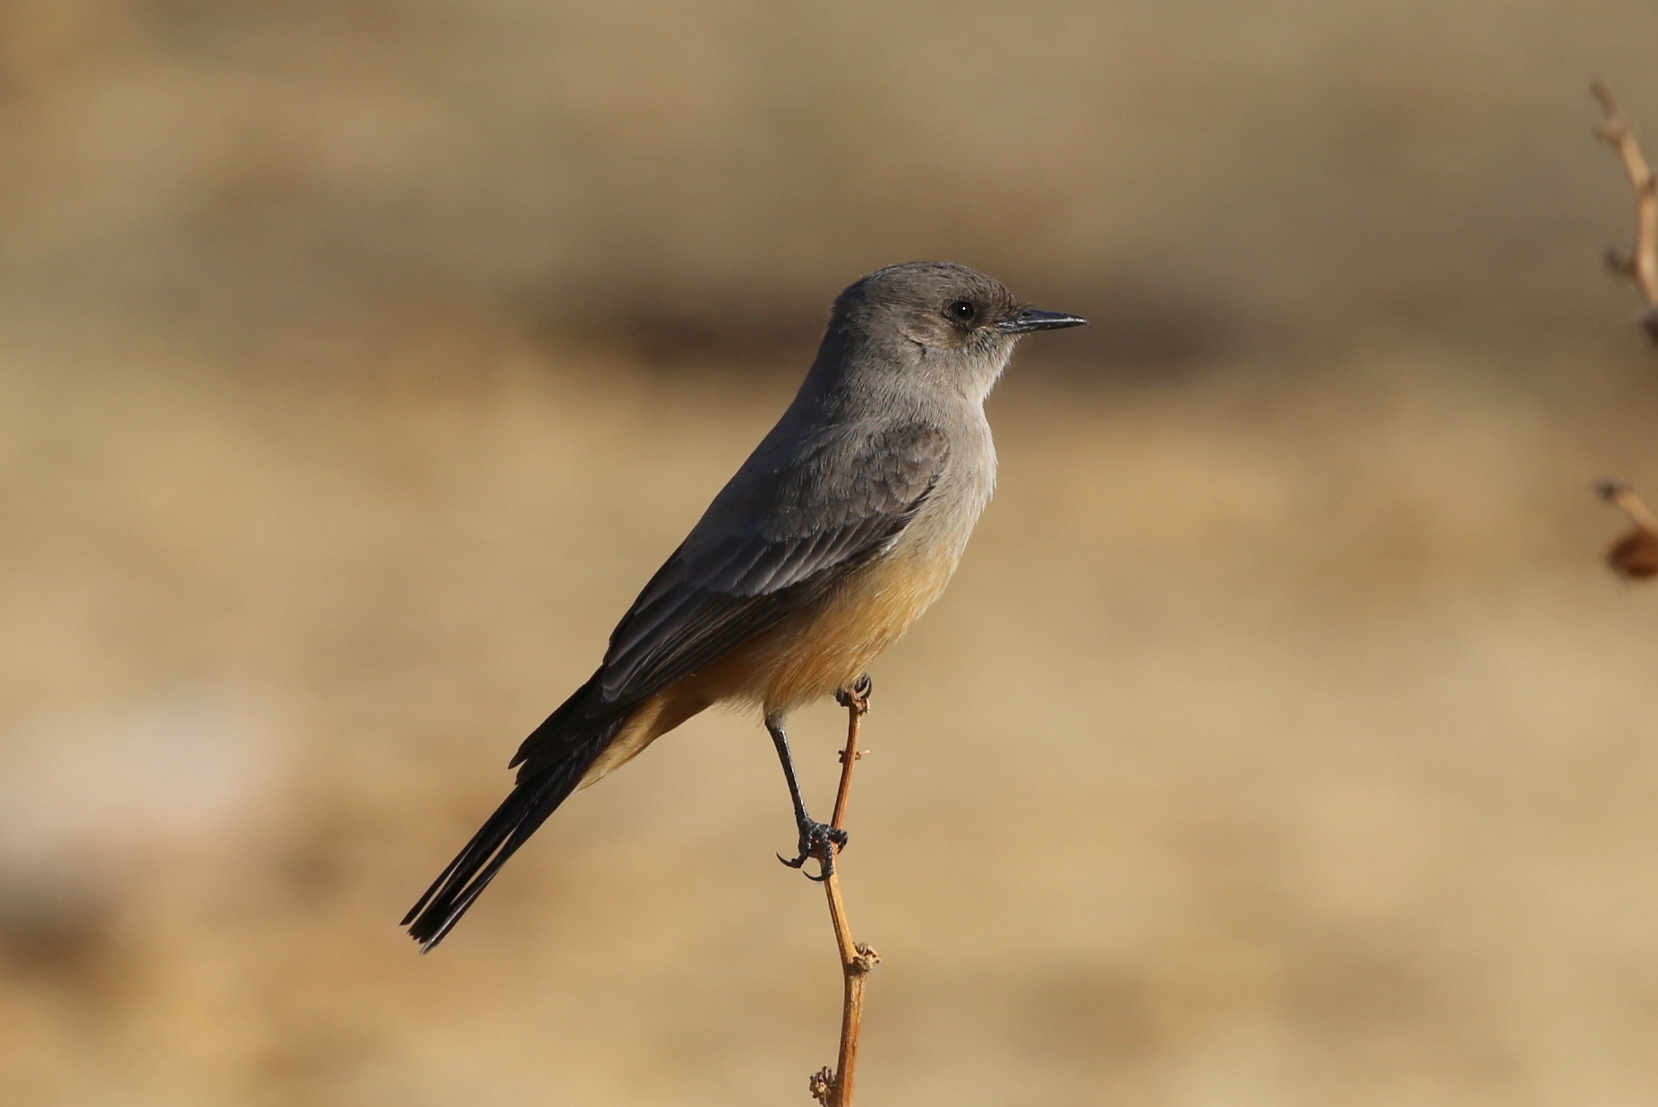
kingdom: Animalia
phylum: Chordata
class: Aves
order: Passeriformes
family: Tyrannidae
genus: Sayornis
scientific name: Sayornis saya
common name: Say's phoebe
